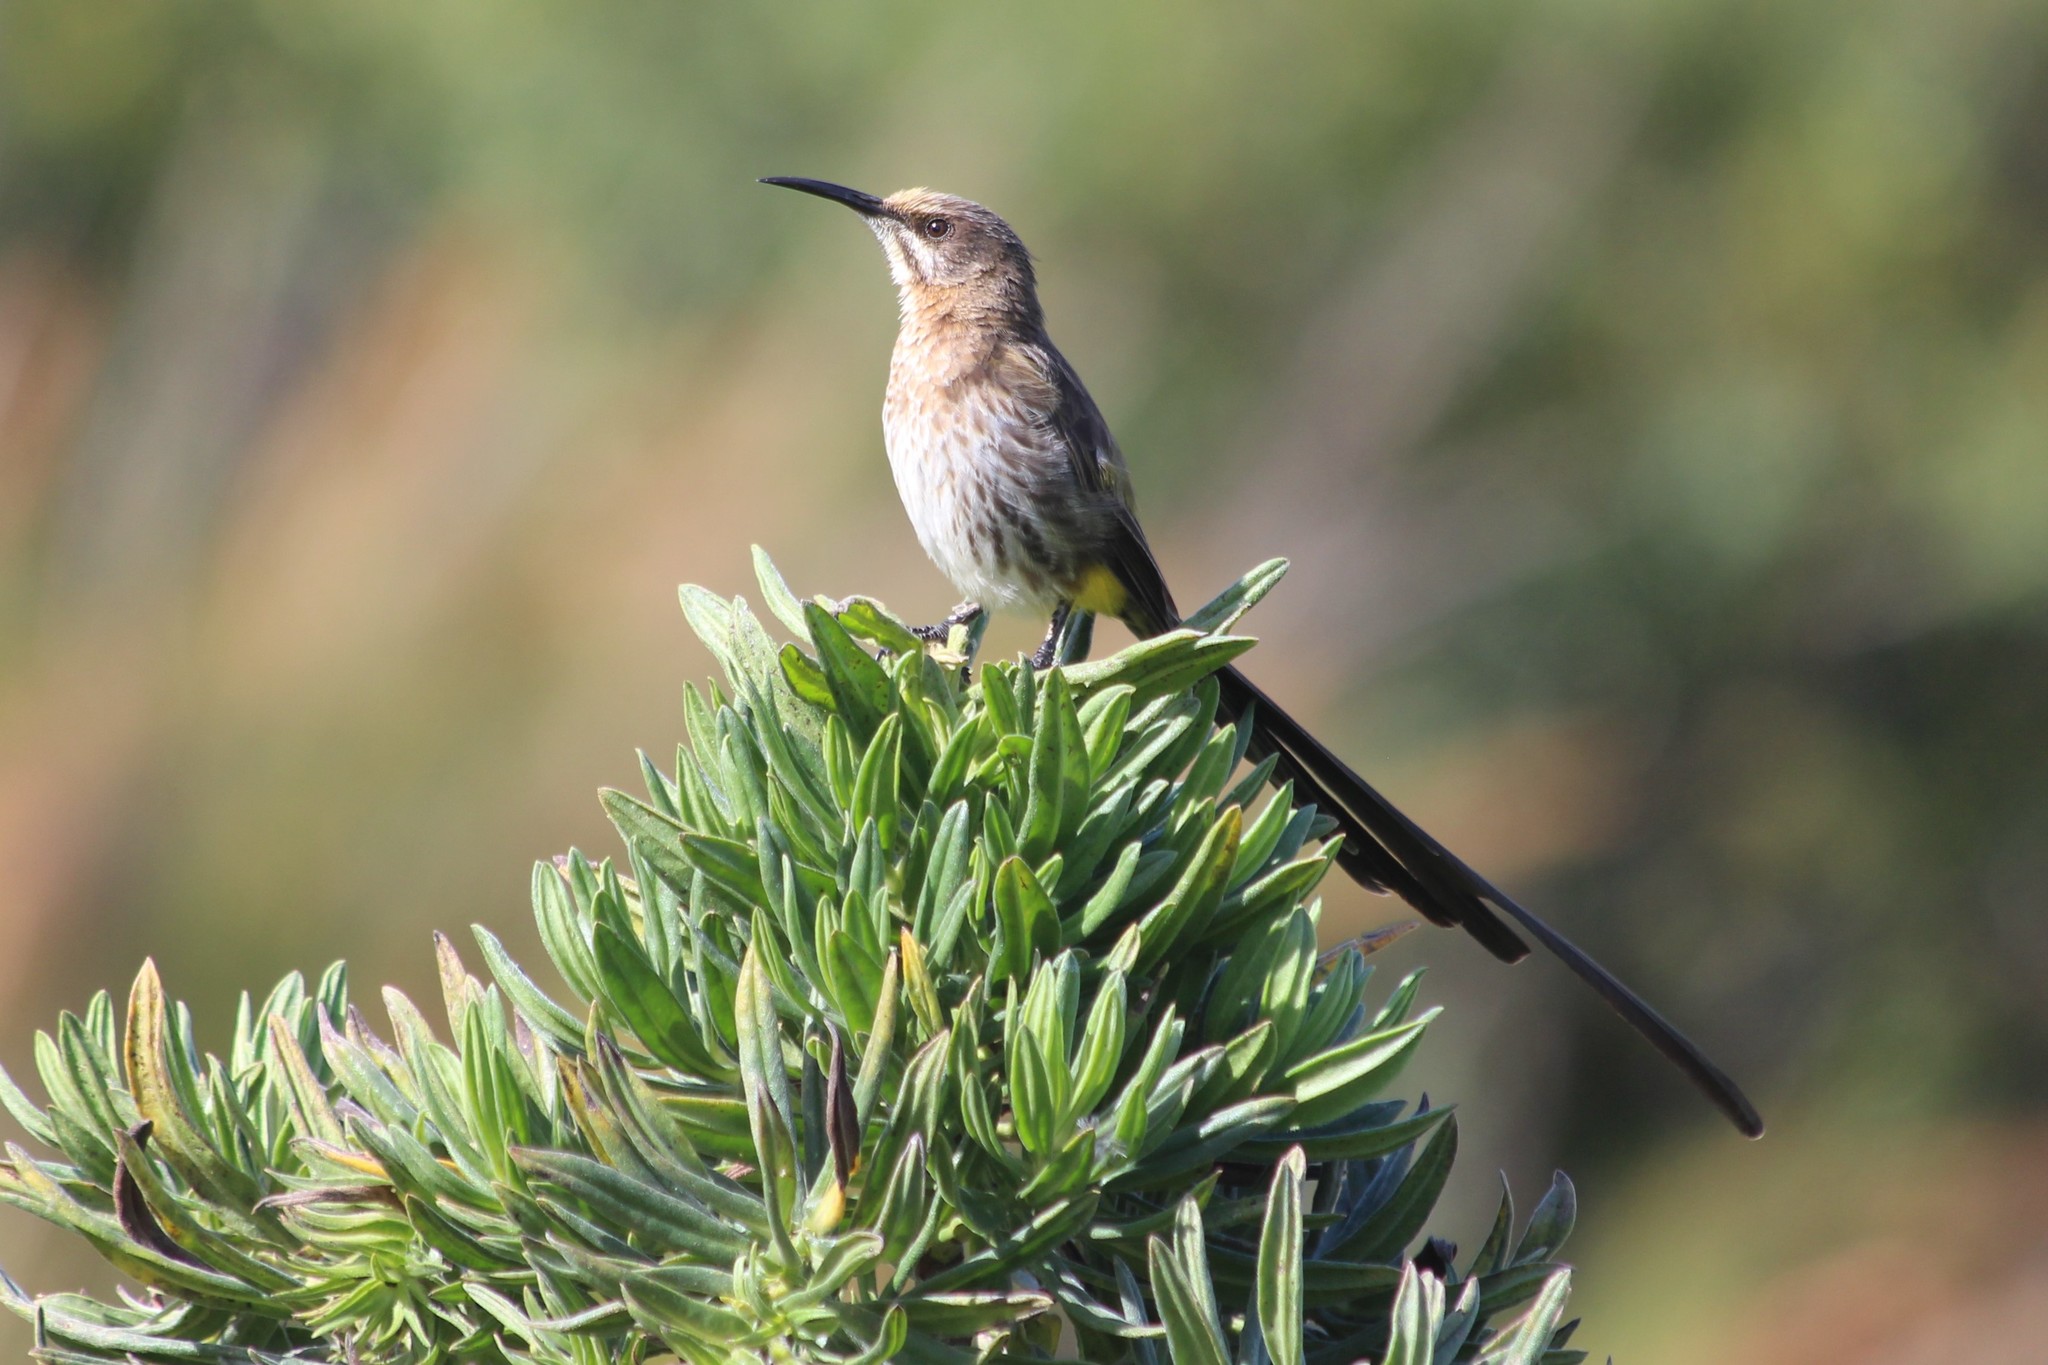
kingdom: Animalia
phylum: Chordata
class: Aves
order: Passeriformes
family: Promeropidae
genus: Promerops
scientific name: Promerops cafer
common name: Cape sugarbird
